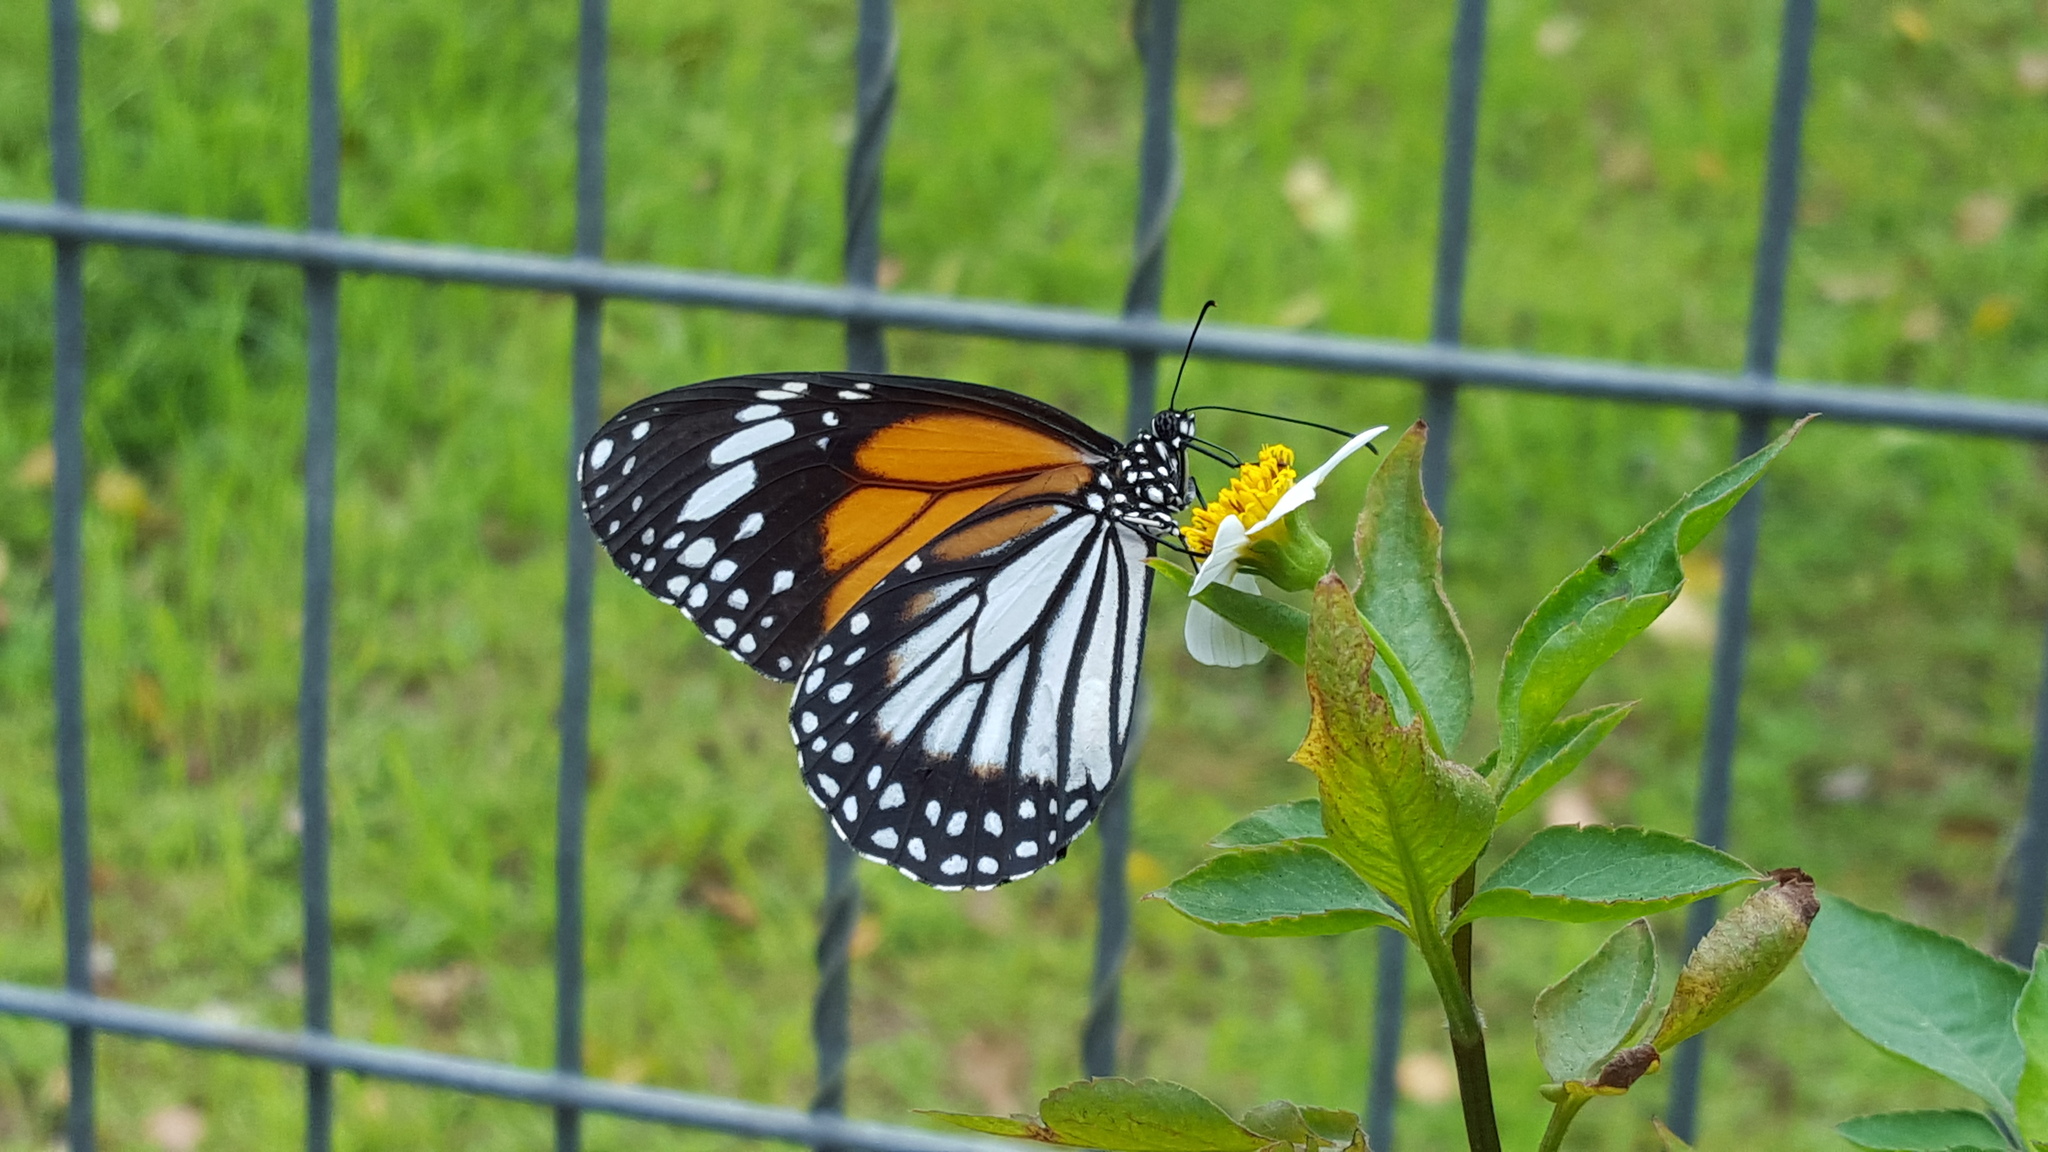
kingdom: Animalia
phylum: Arthropoda
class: Insecta
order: Lepidoptera
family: Nymphalidae
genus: Danaus
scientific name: Danaus melanippus
